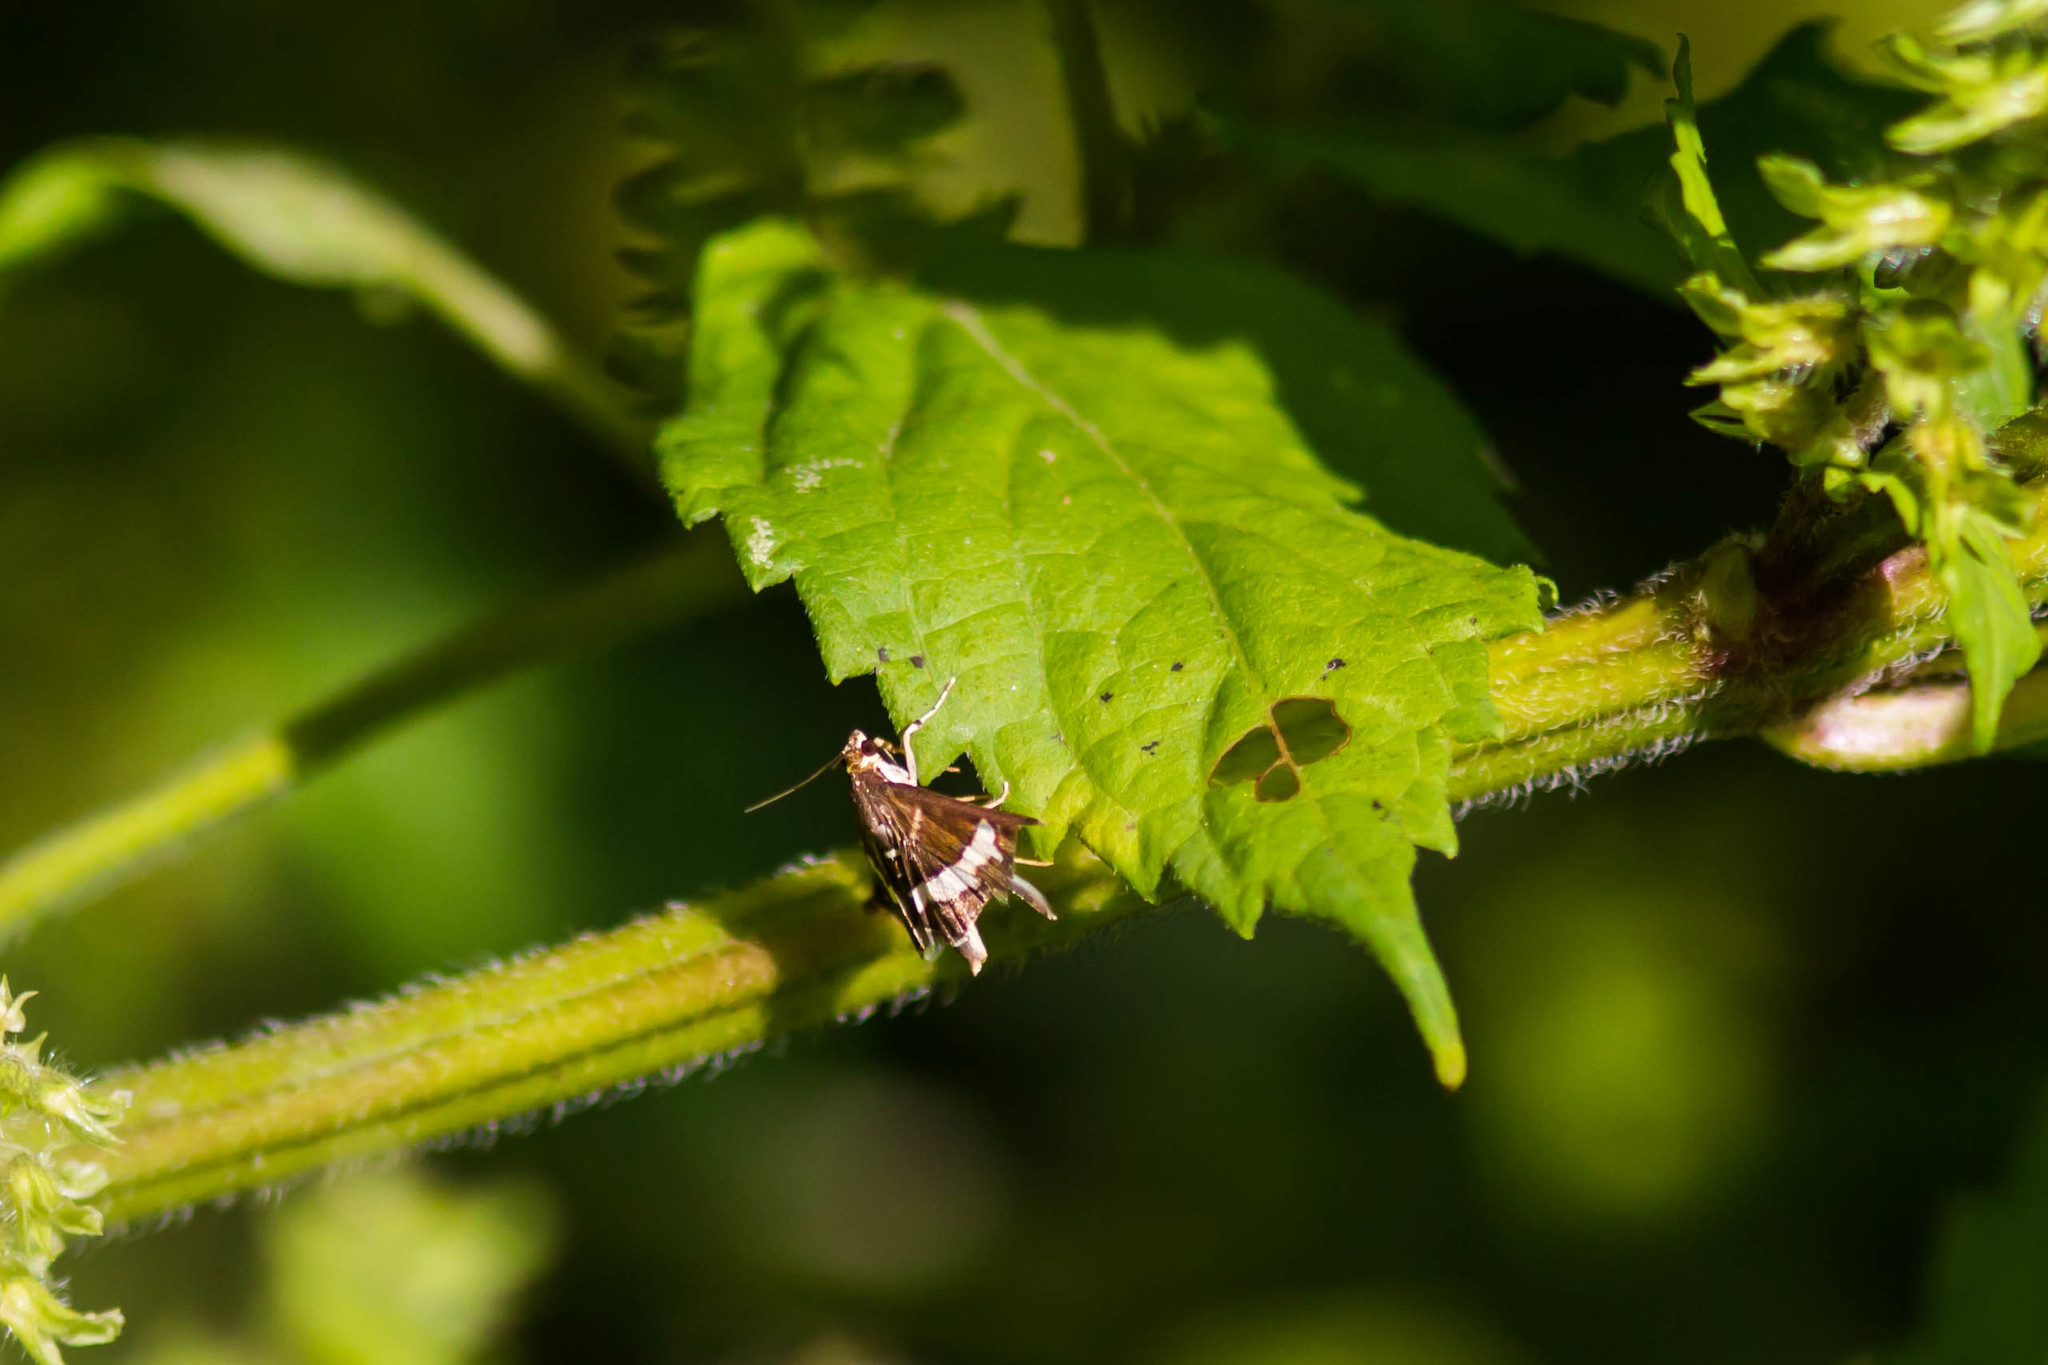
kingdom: Animalia
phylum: Arthropoda
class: Insecta
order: Lepidoptera
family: Crambidae
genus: Spoladea
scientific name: Spoladea recurvalis
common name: Beet webworm moth
